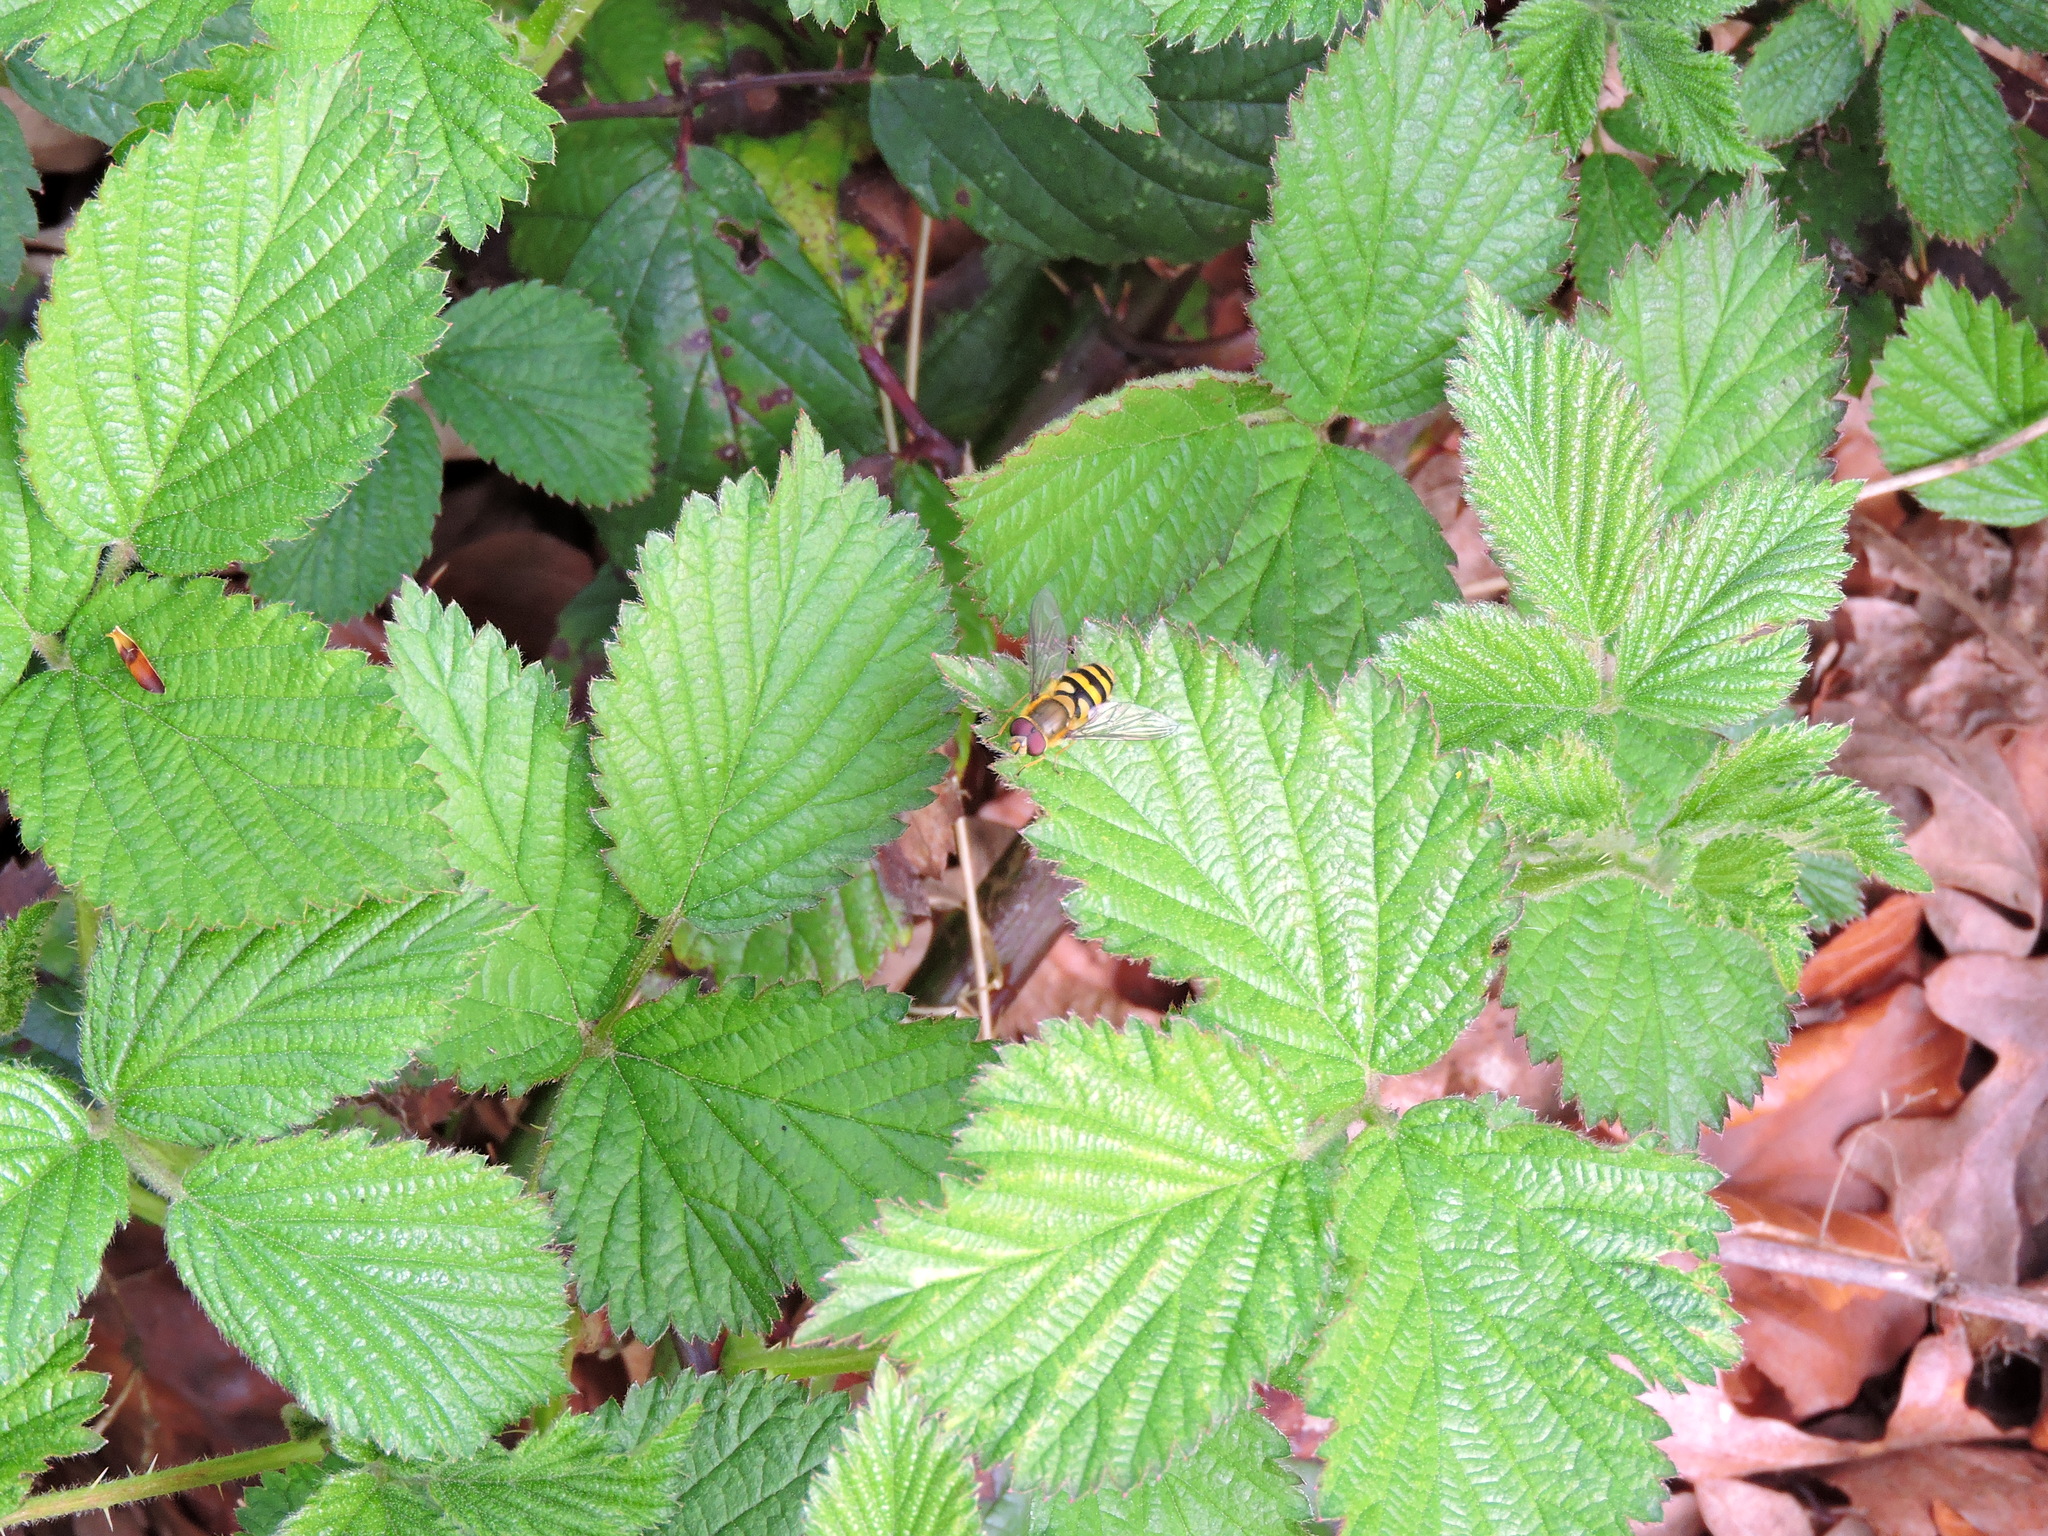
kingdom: Animalia
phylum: Arthropoda
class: Insecta
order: Diptera
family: Syrphidae
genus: Syrphus
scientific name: Syrphus
